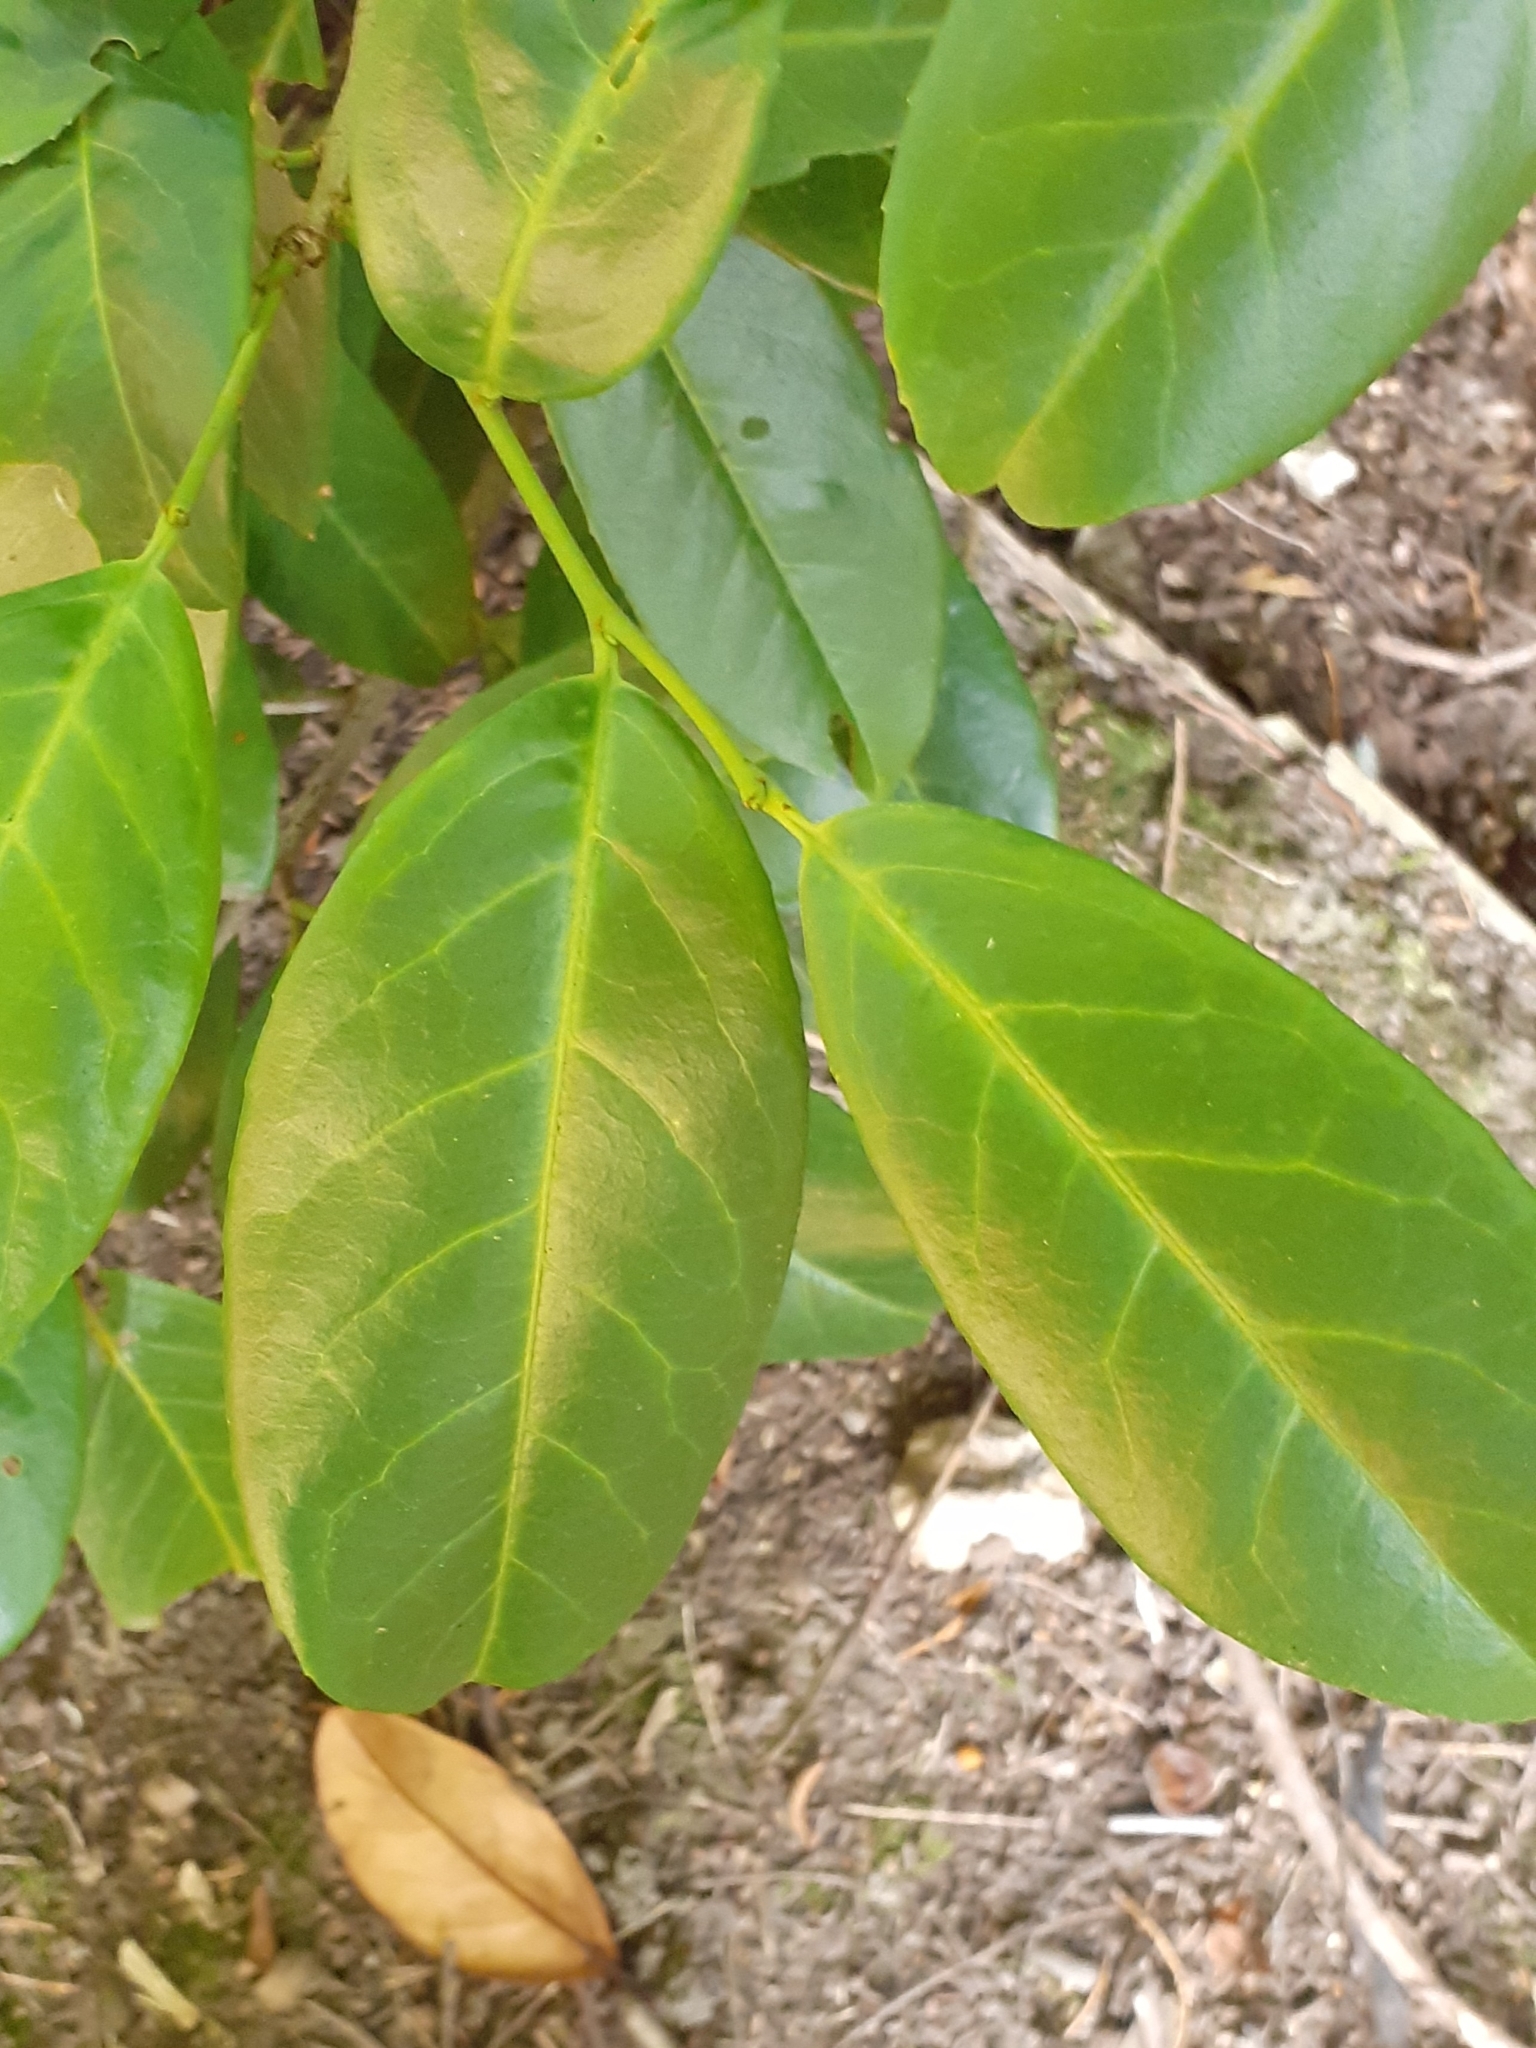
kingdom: Plantae
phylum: Tracheophyta
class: Magnoliopsida
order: Rosales
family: Rosaceae
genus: Prunus
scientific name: Prunus laurocerasus
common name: Cherry laurel
